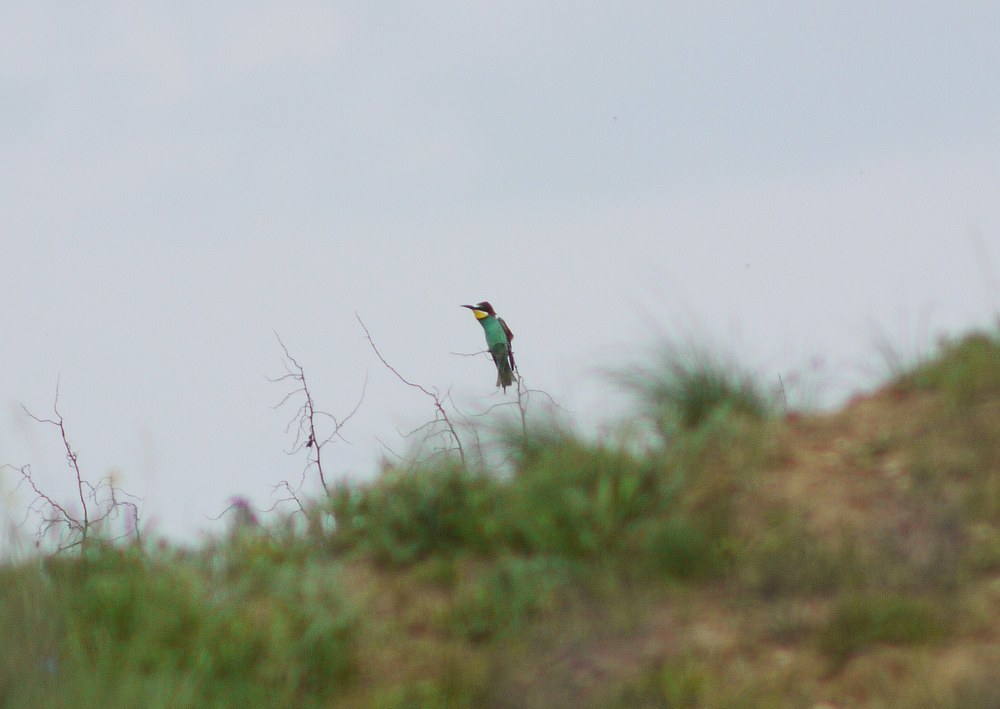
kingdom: Animalia
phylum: Chordata
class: Aves
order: Coraciiformes
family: Meropidae
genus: Merops
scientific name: Merops apiaster
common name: European bee-eater
